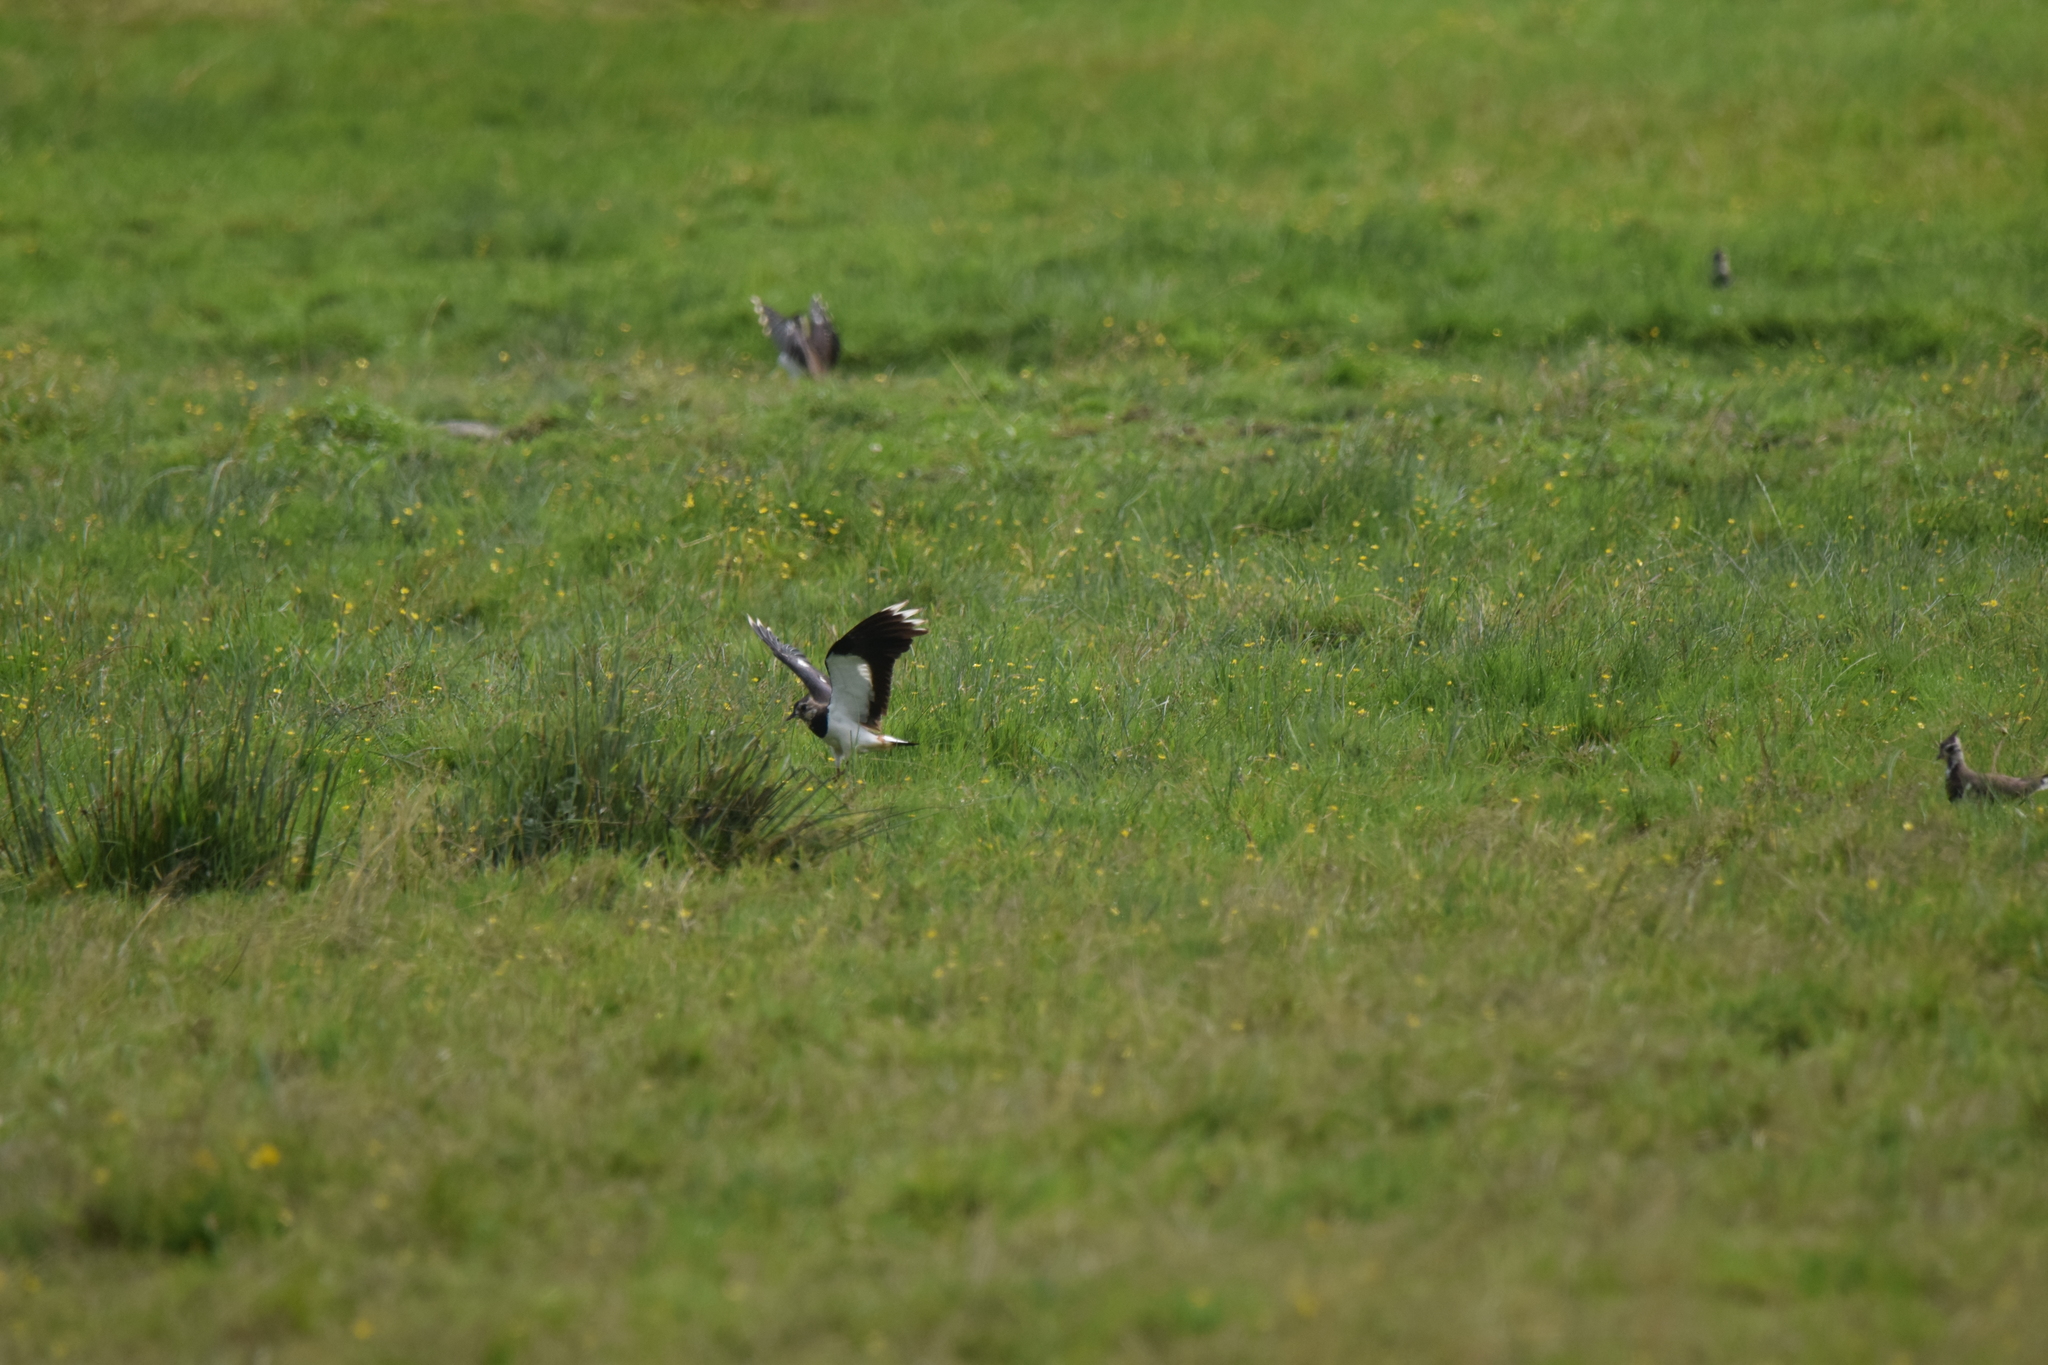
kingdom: Animalia
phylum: Chordata
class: Aves
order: Charadriiformes
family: Charadriidae
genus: Vanellus
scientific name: Vanellus vanellus
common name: Northern lapwing
